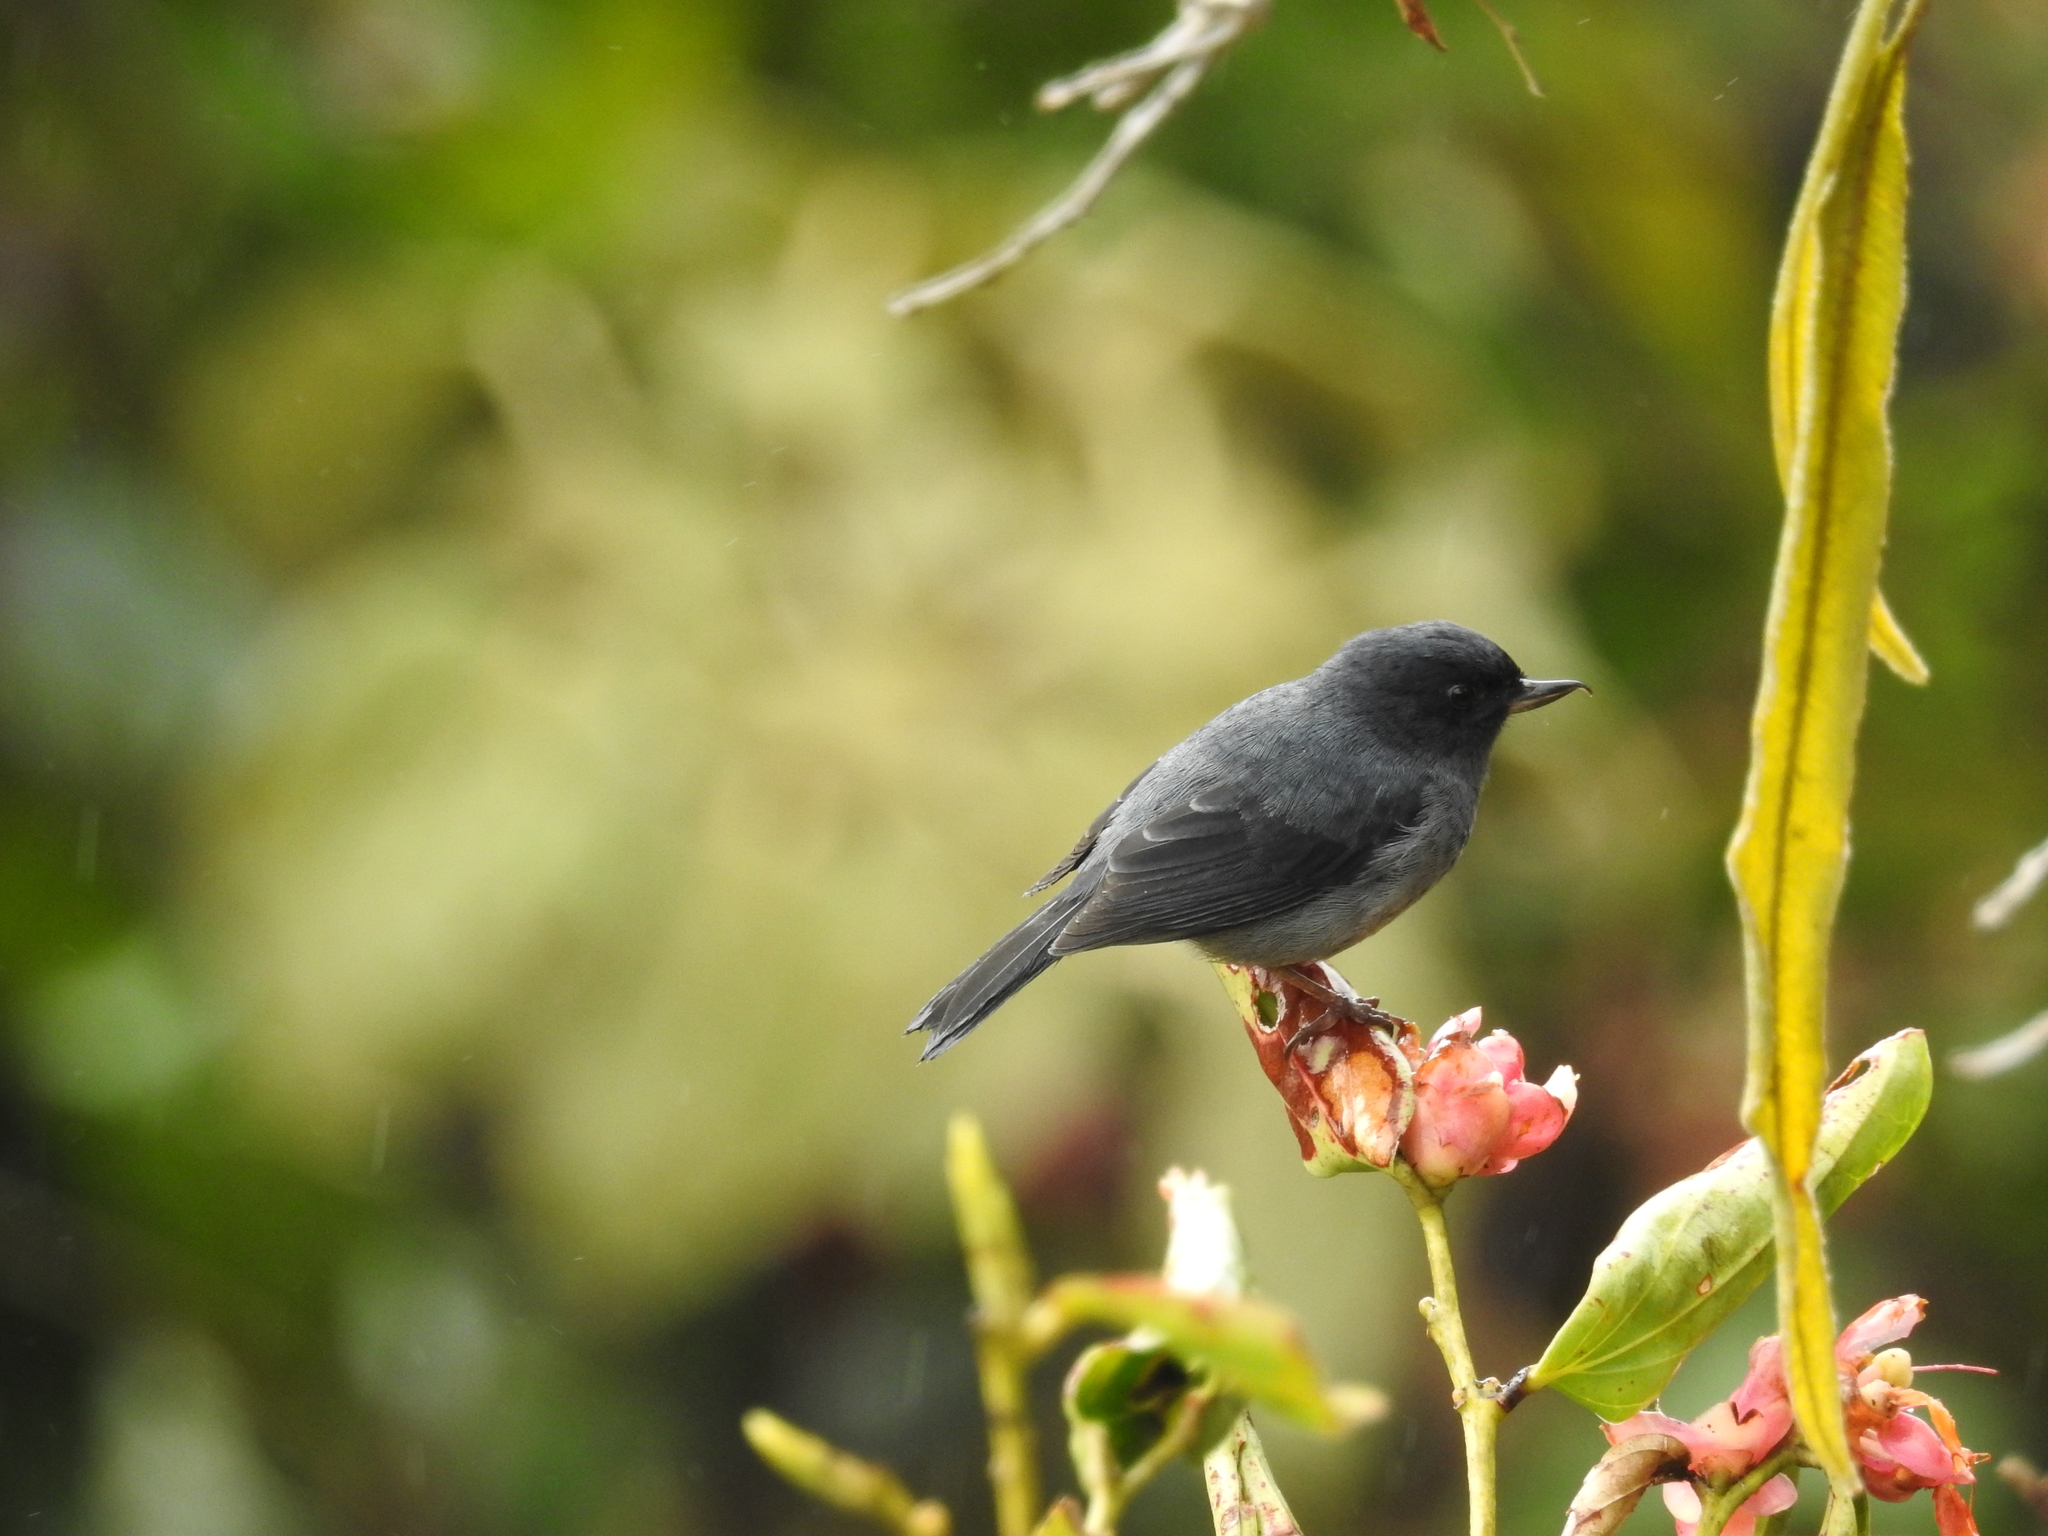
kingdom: Animalia
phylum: Chordata
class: Aves
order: Passeriformes
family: Thraupidae
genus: Diglossa
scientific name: Diglossa plumbea
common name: Slaty flowerpiercer
